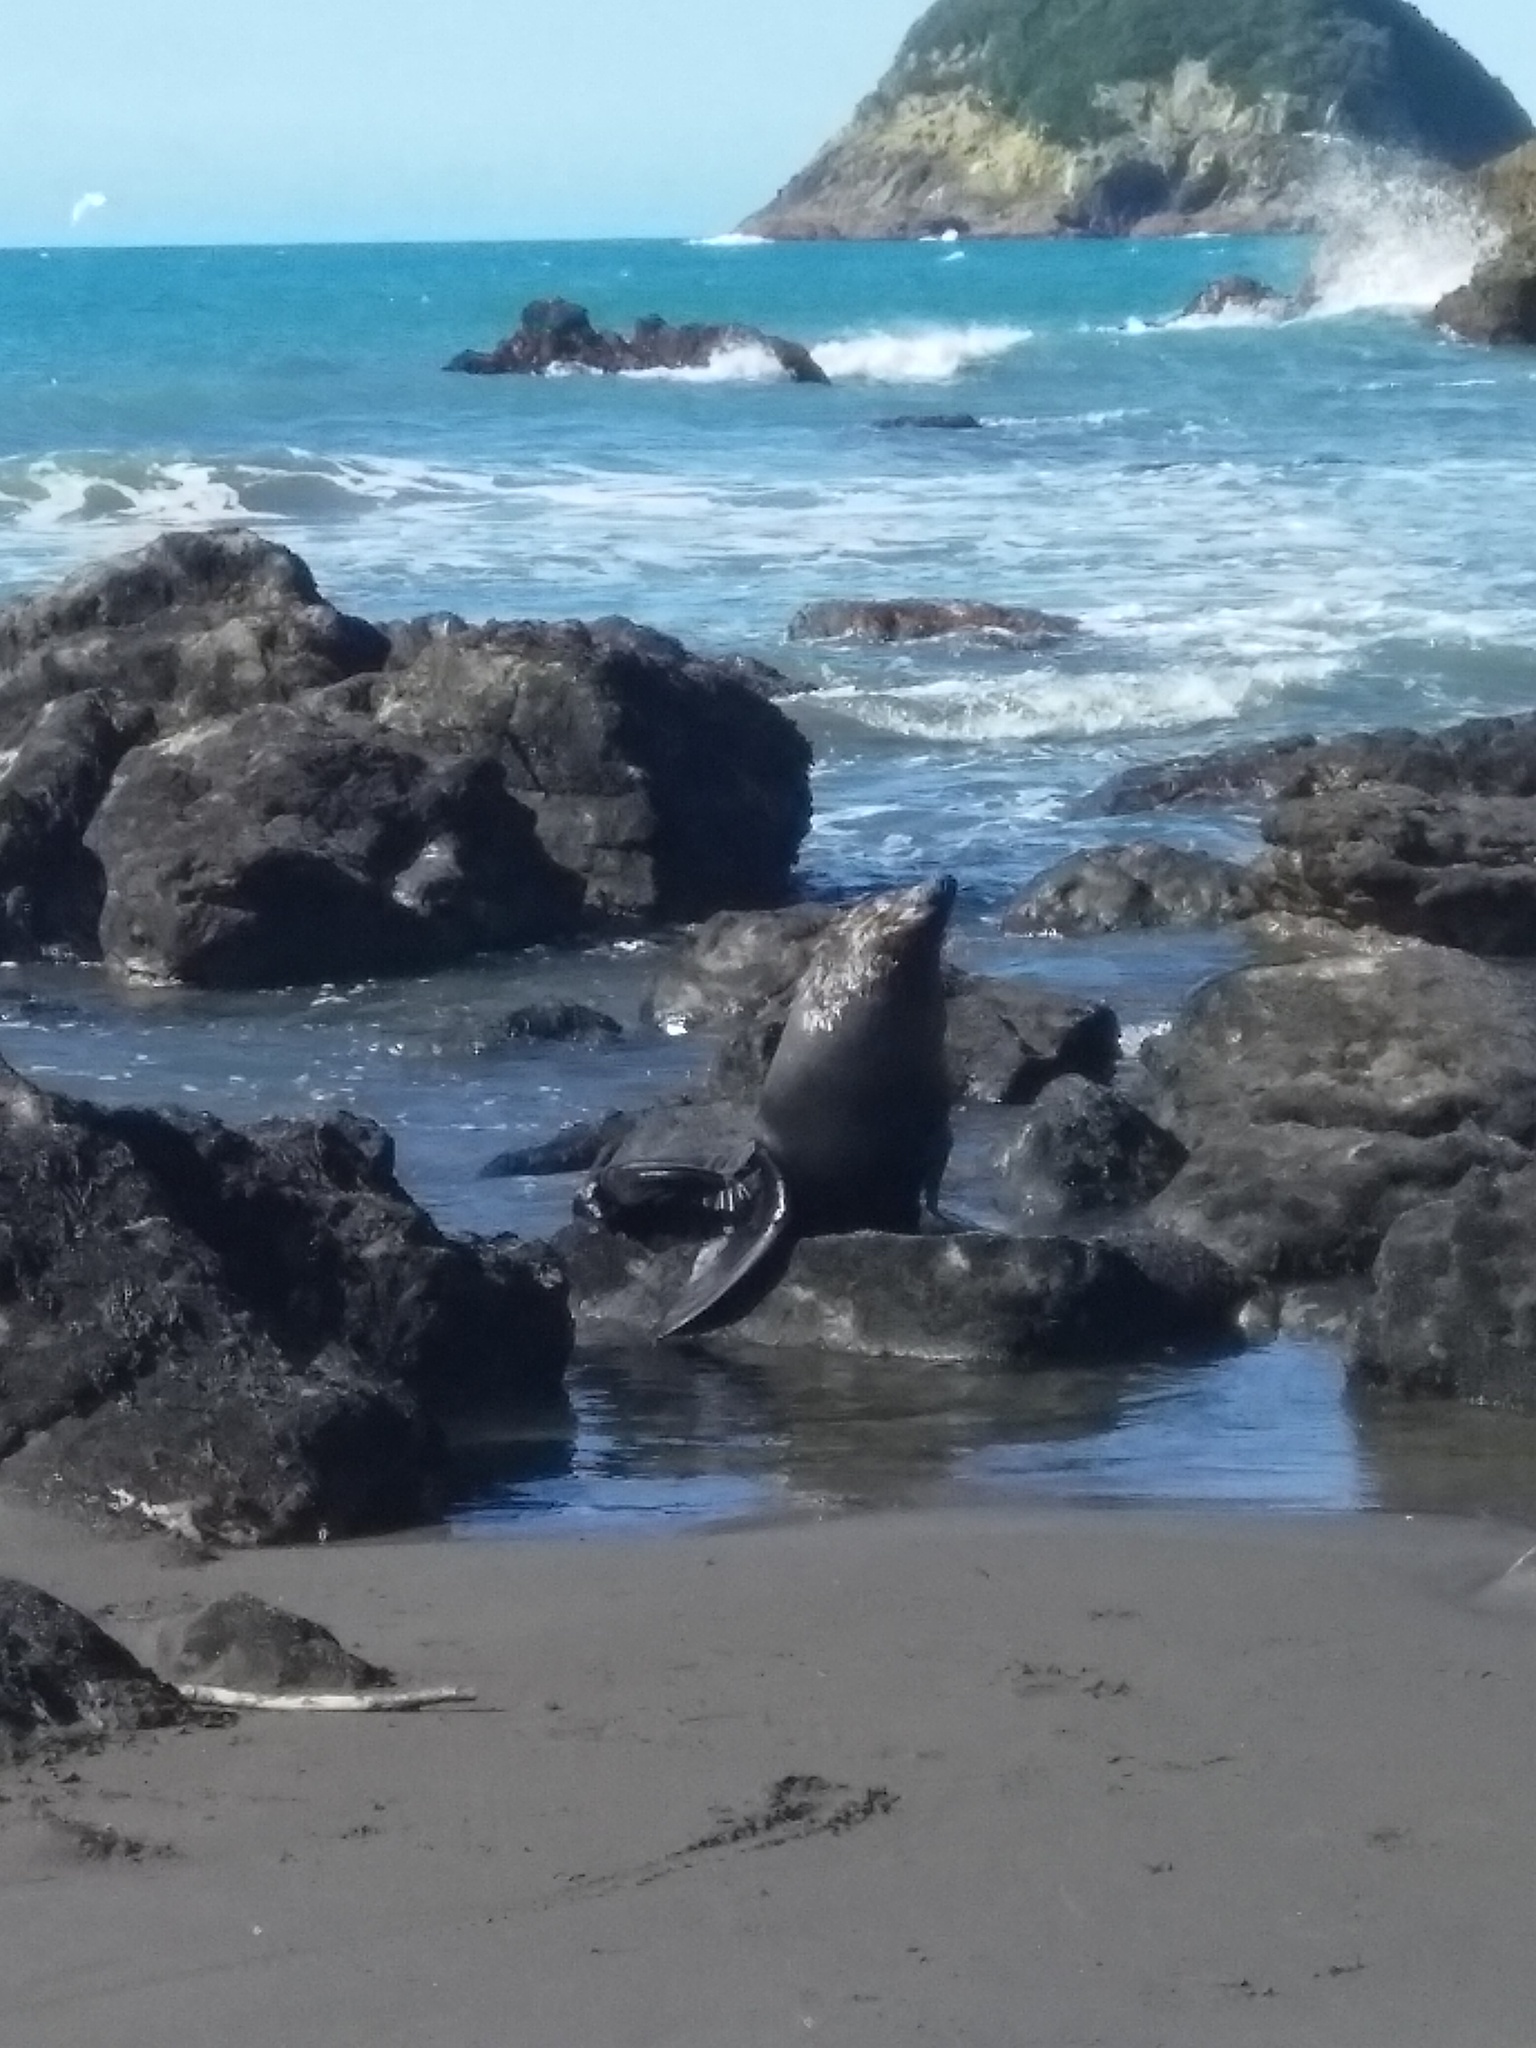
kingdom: Animalia
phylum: Chordata
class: Mammalia
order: Carnivora
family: Otariidae
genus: Arctocephalus
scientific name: Arctocephalus forsteri
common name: New zealand fur seal
